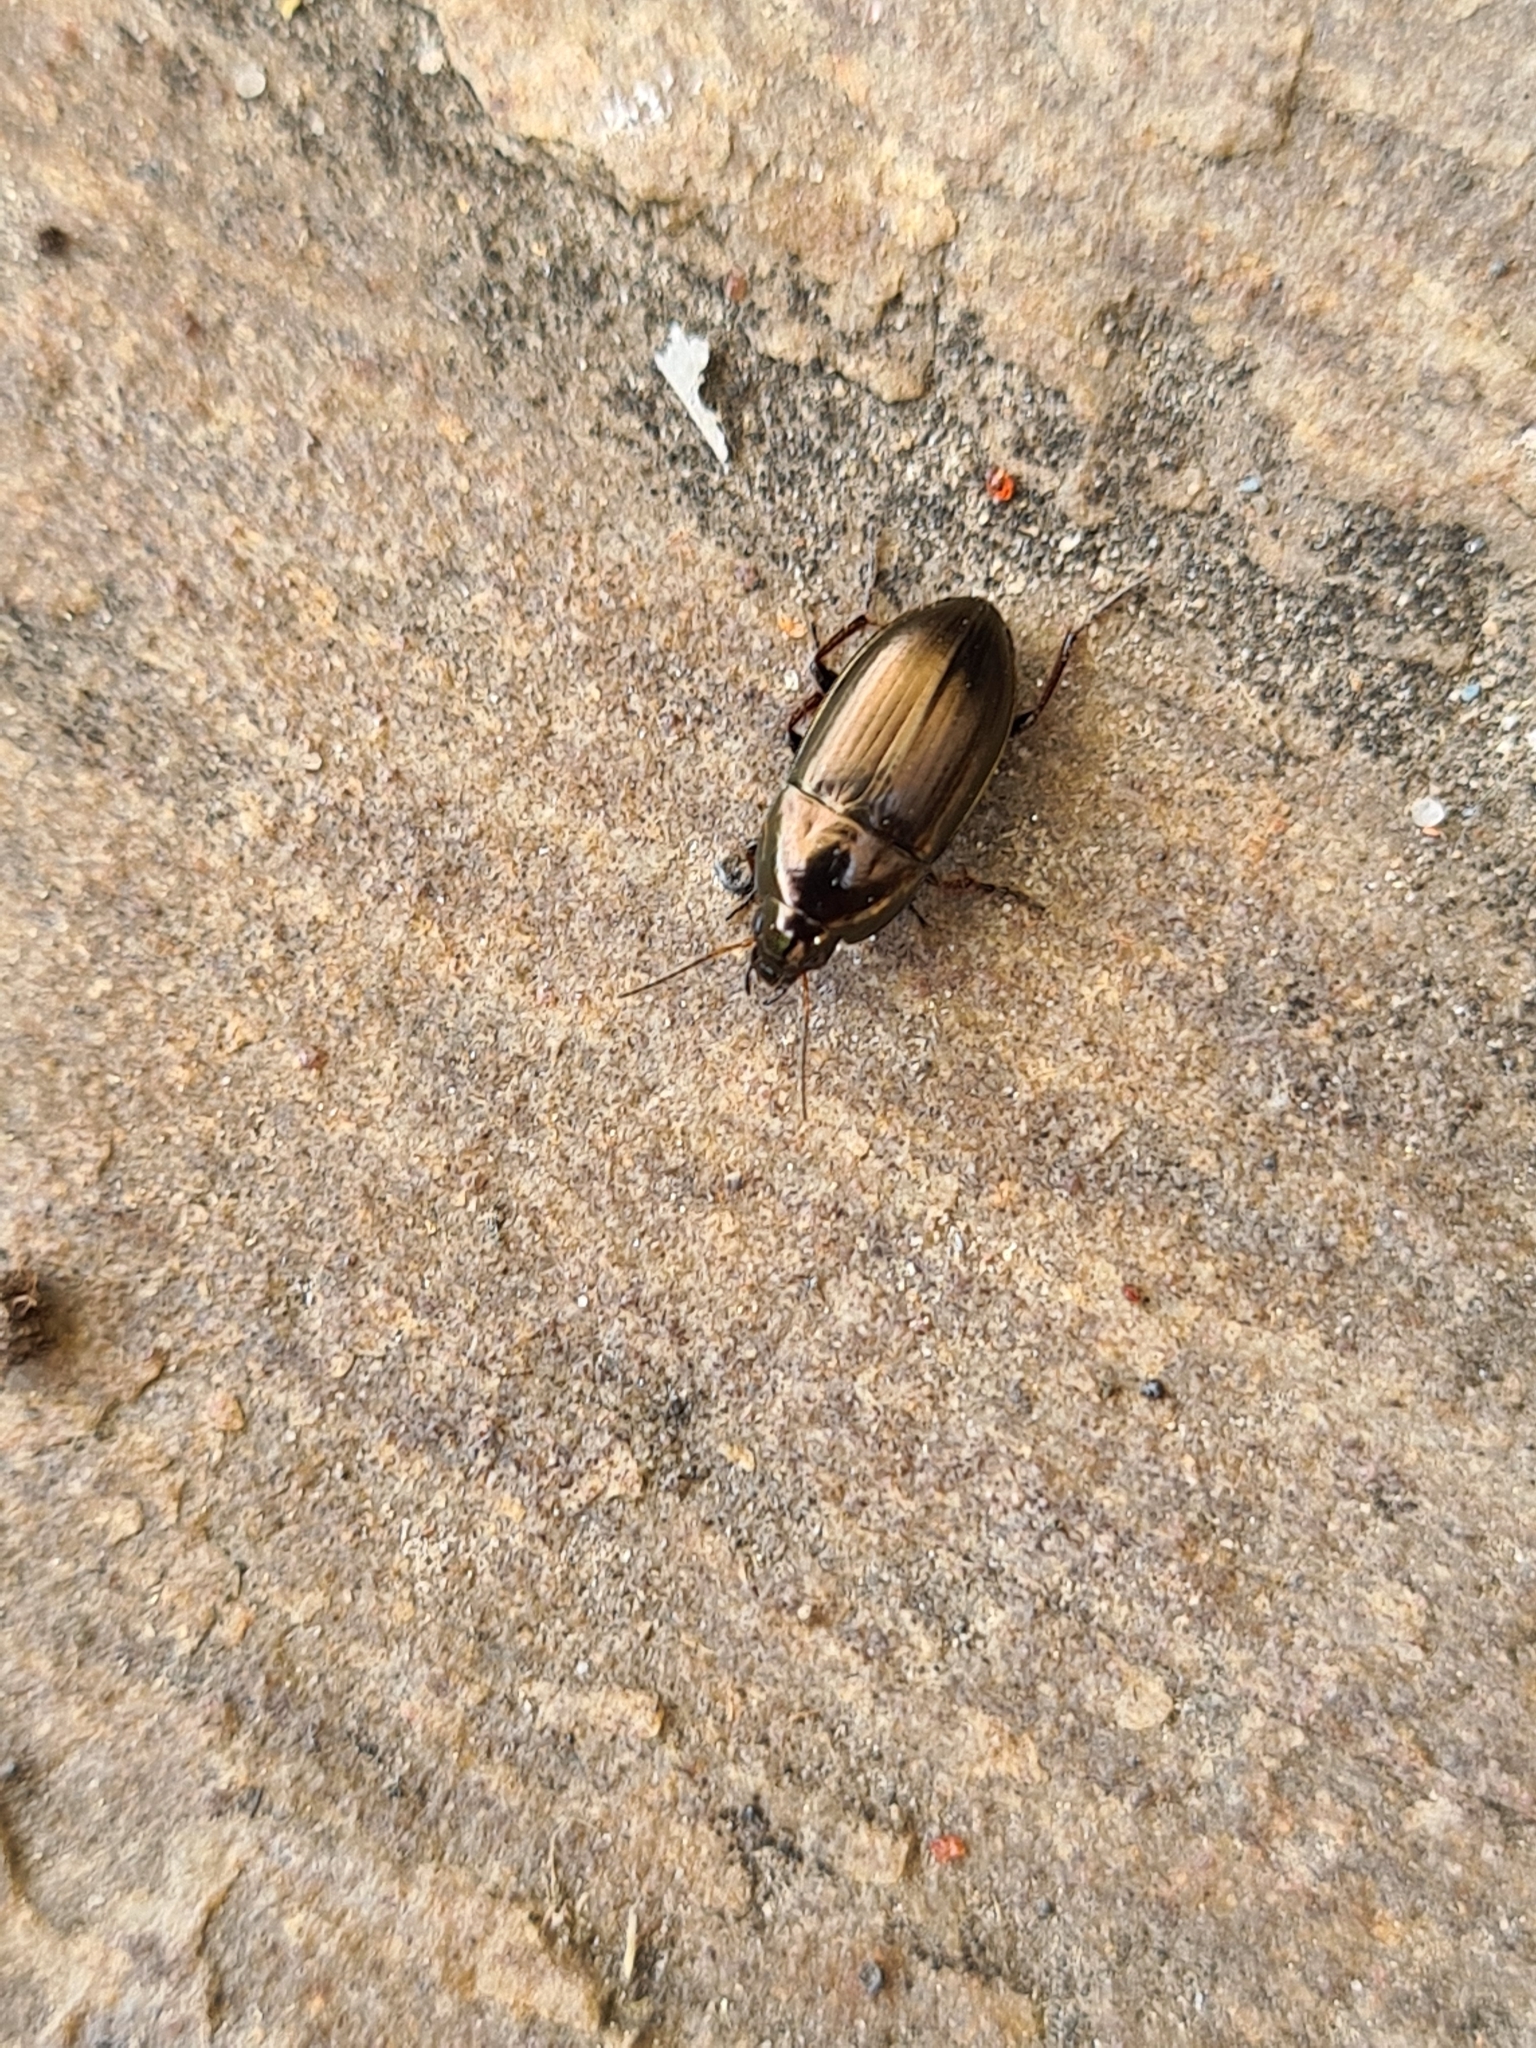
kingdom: Animalia
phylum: Arthropoda
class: Insecta
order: Coleoptera
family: Carabidae
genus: Amara
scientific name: Amara aenea
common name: Common sun beetle
